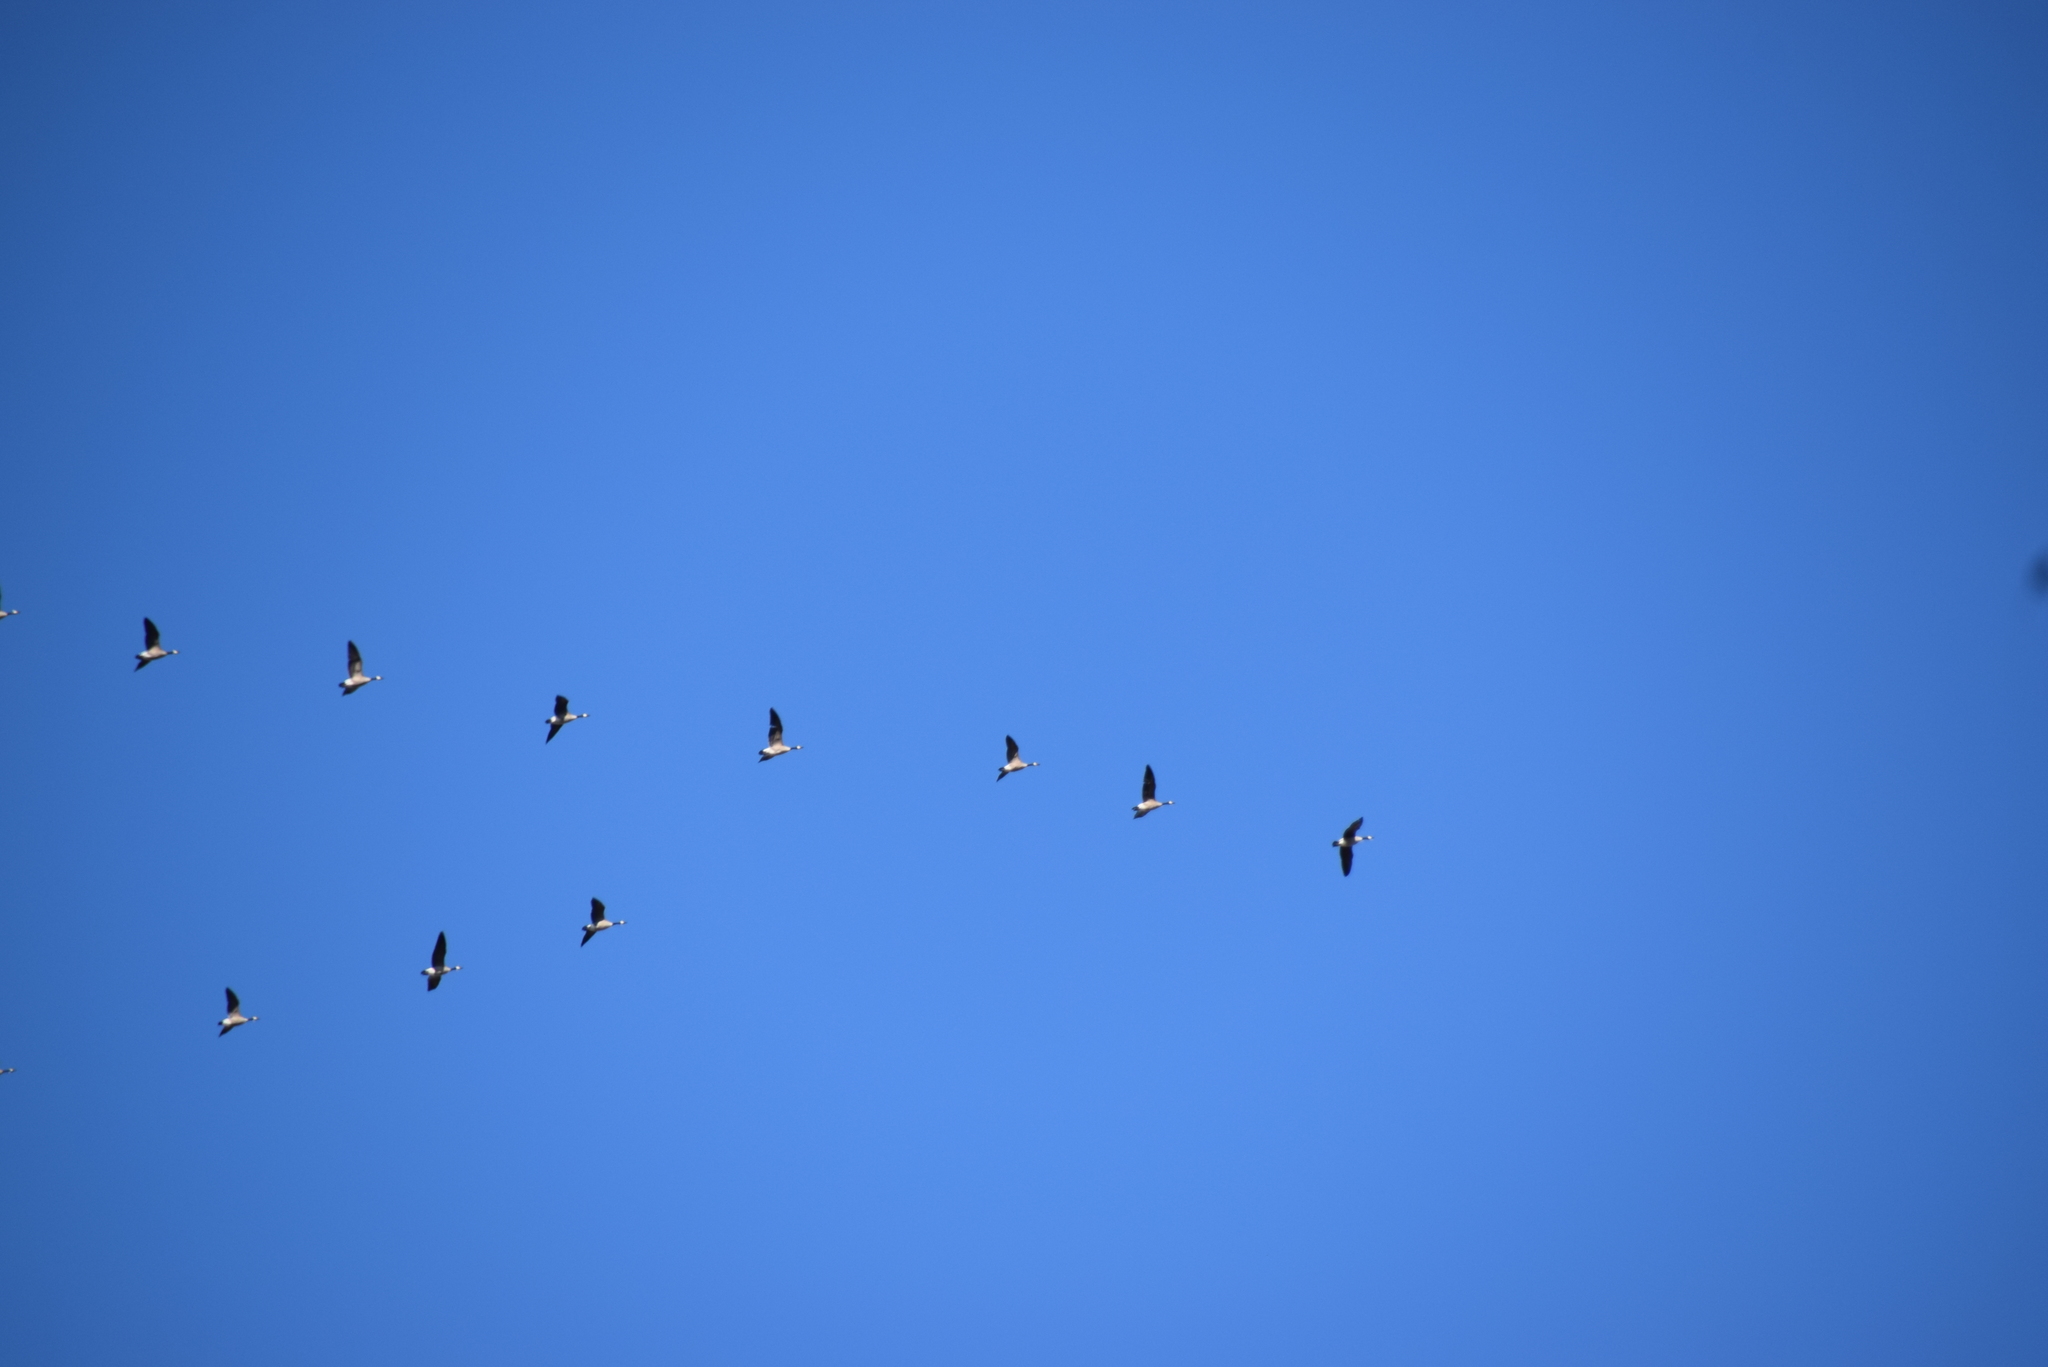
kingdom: Animalia
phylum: Chordata
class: Aves
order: Anseriformes
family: Anatidae
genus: Branta
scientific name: Branta canadensis
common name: Canada goose
